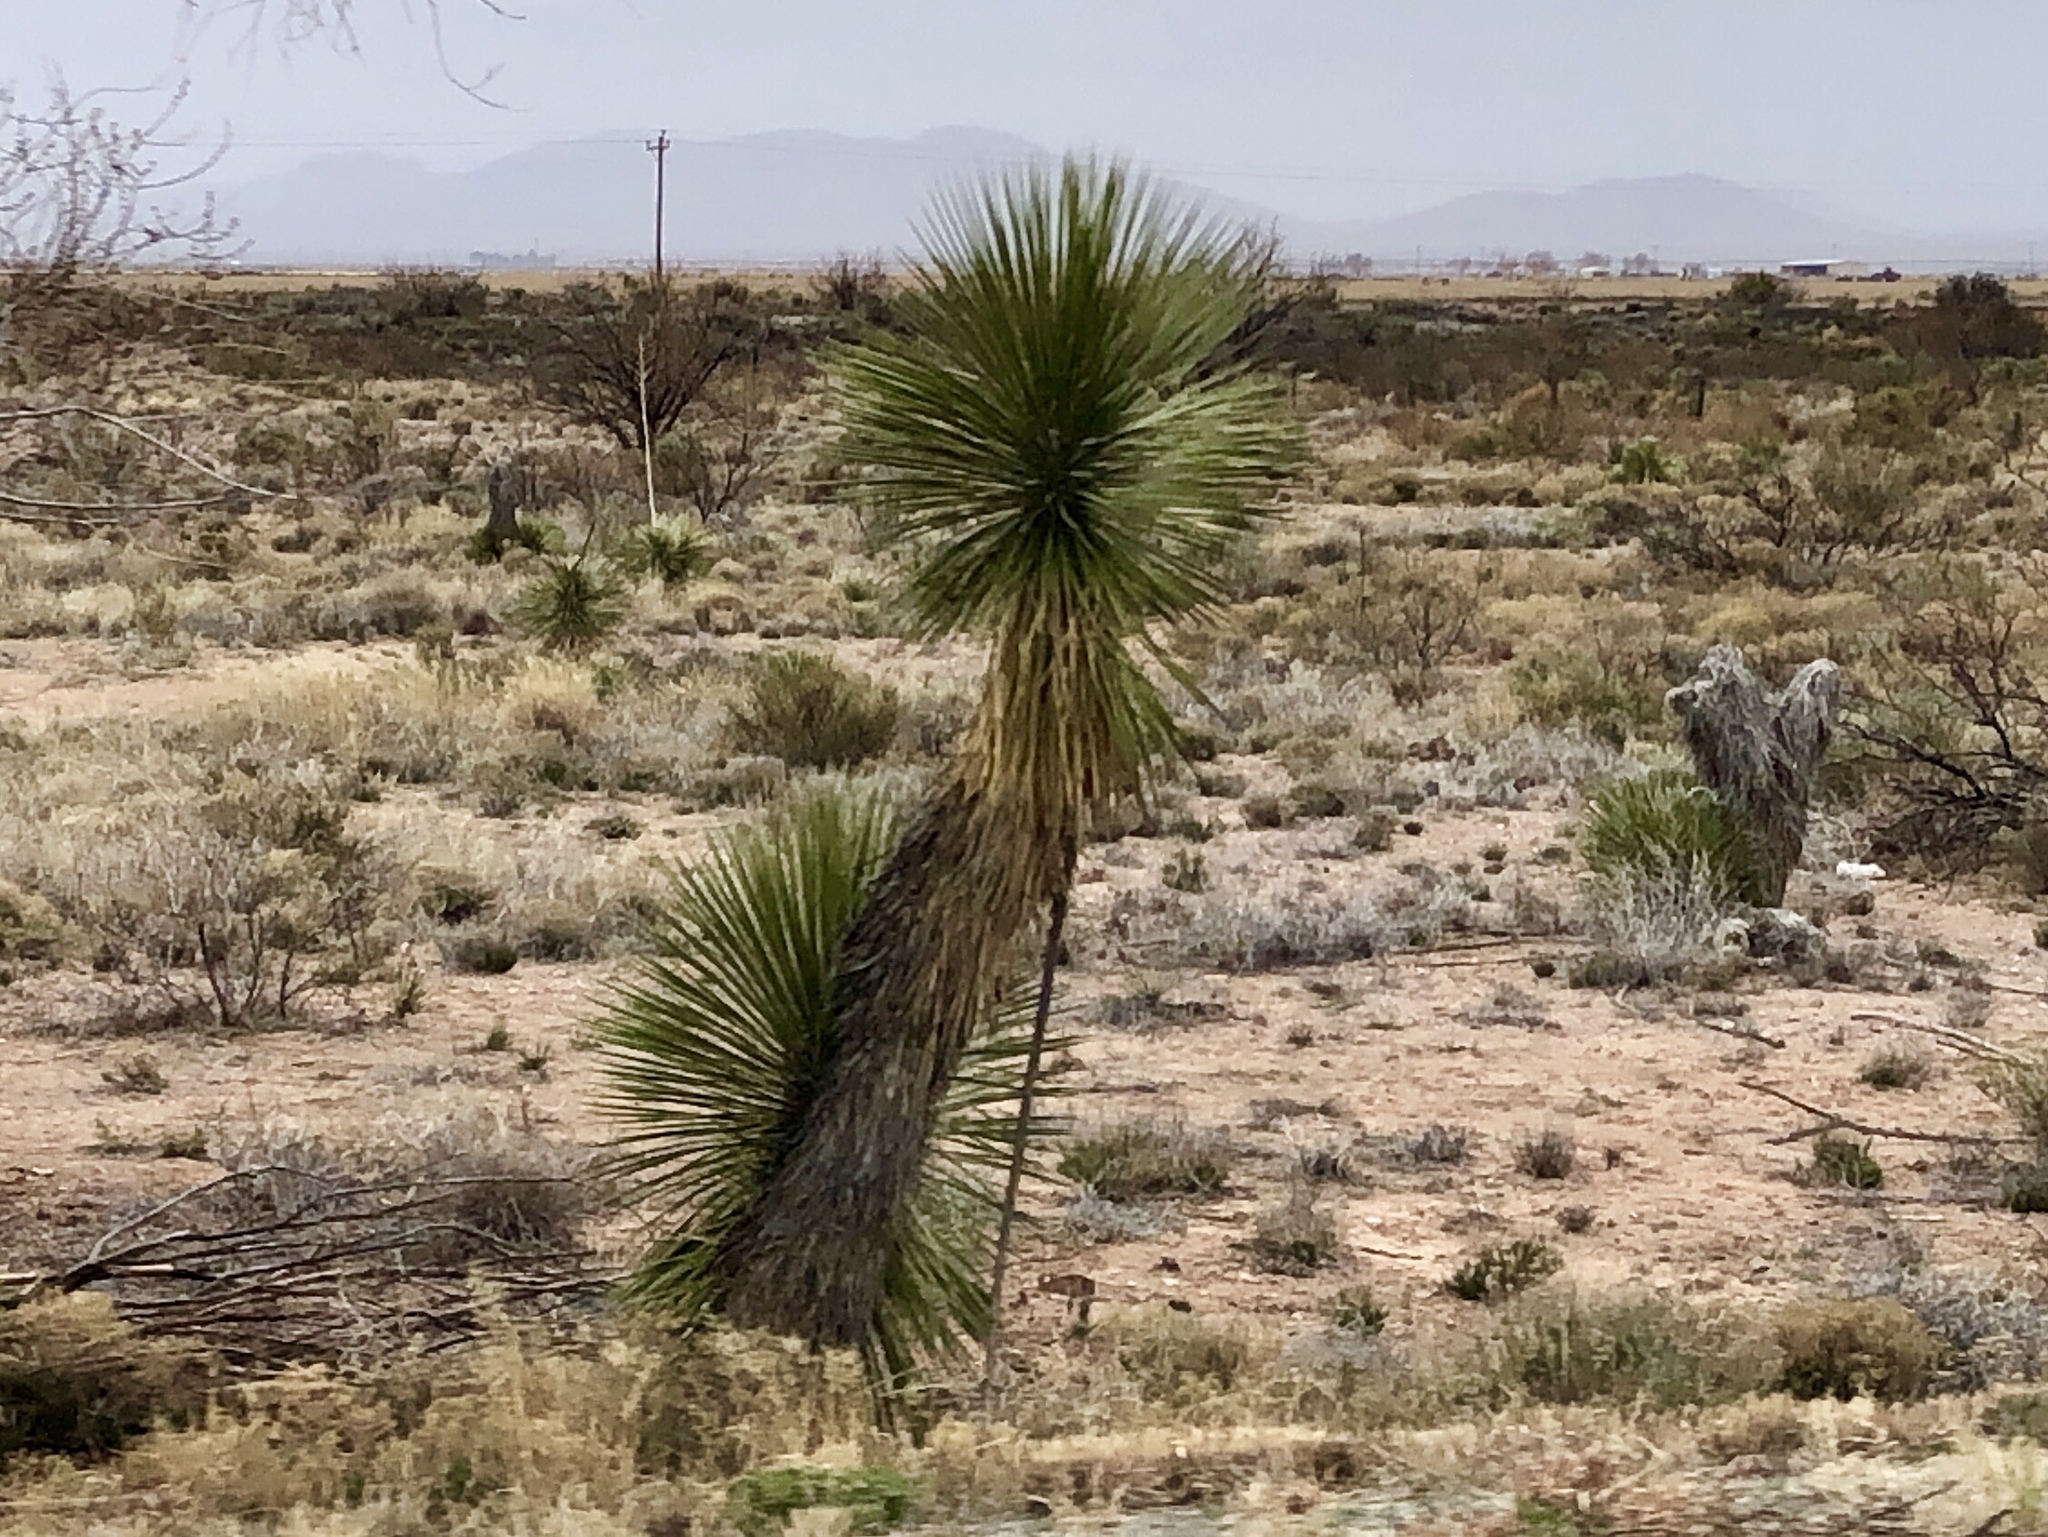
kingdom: Plantae
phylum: Tracheophyta
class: Liliopsida
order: Asparagales
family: Asparagaceae
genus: Yucca
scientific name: Yucca elata
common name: Palmella
